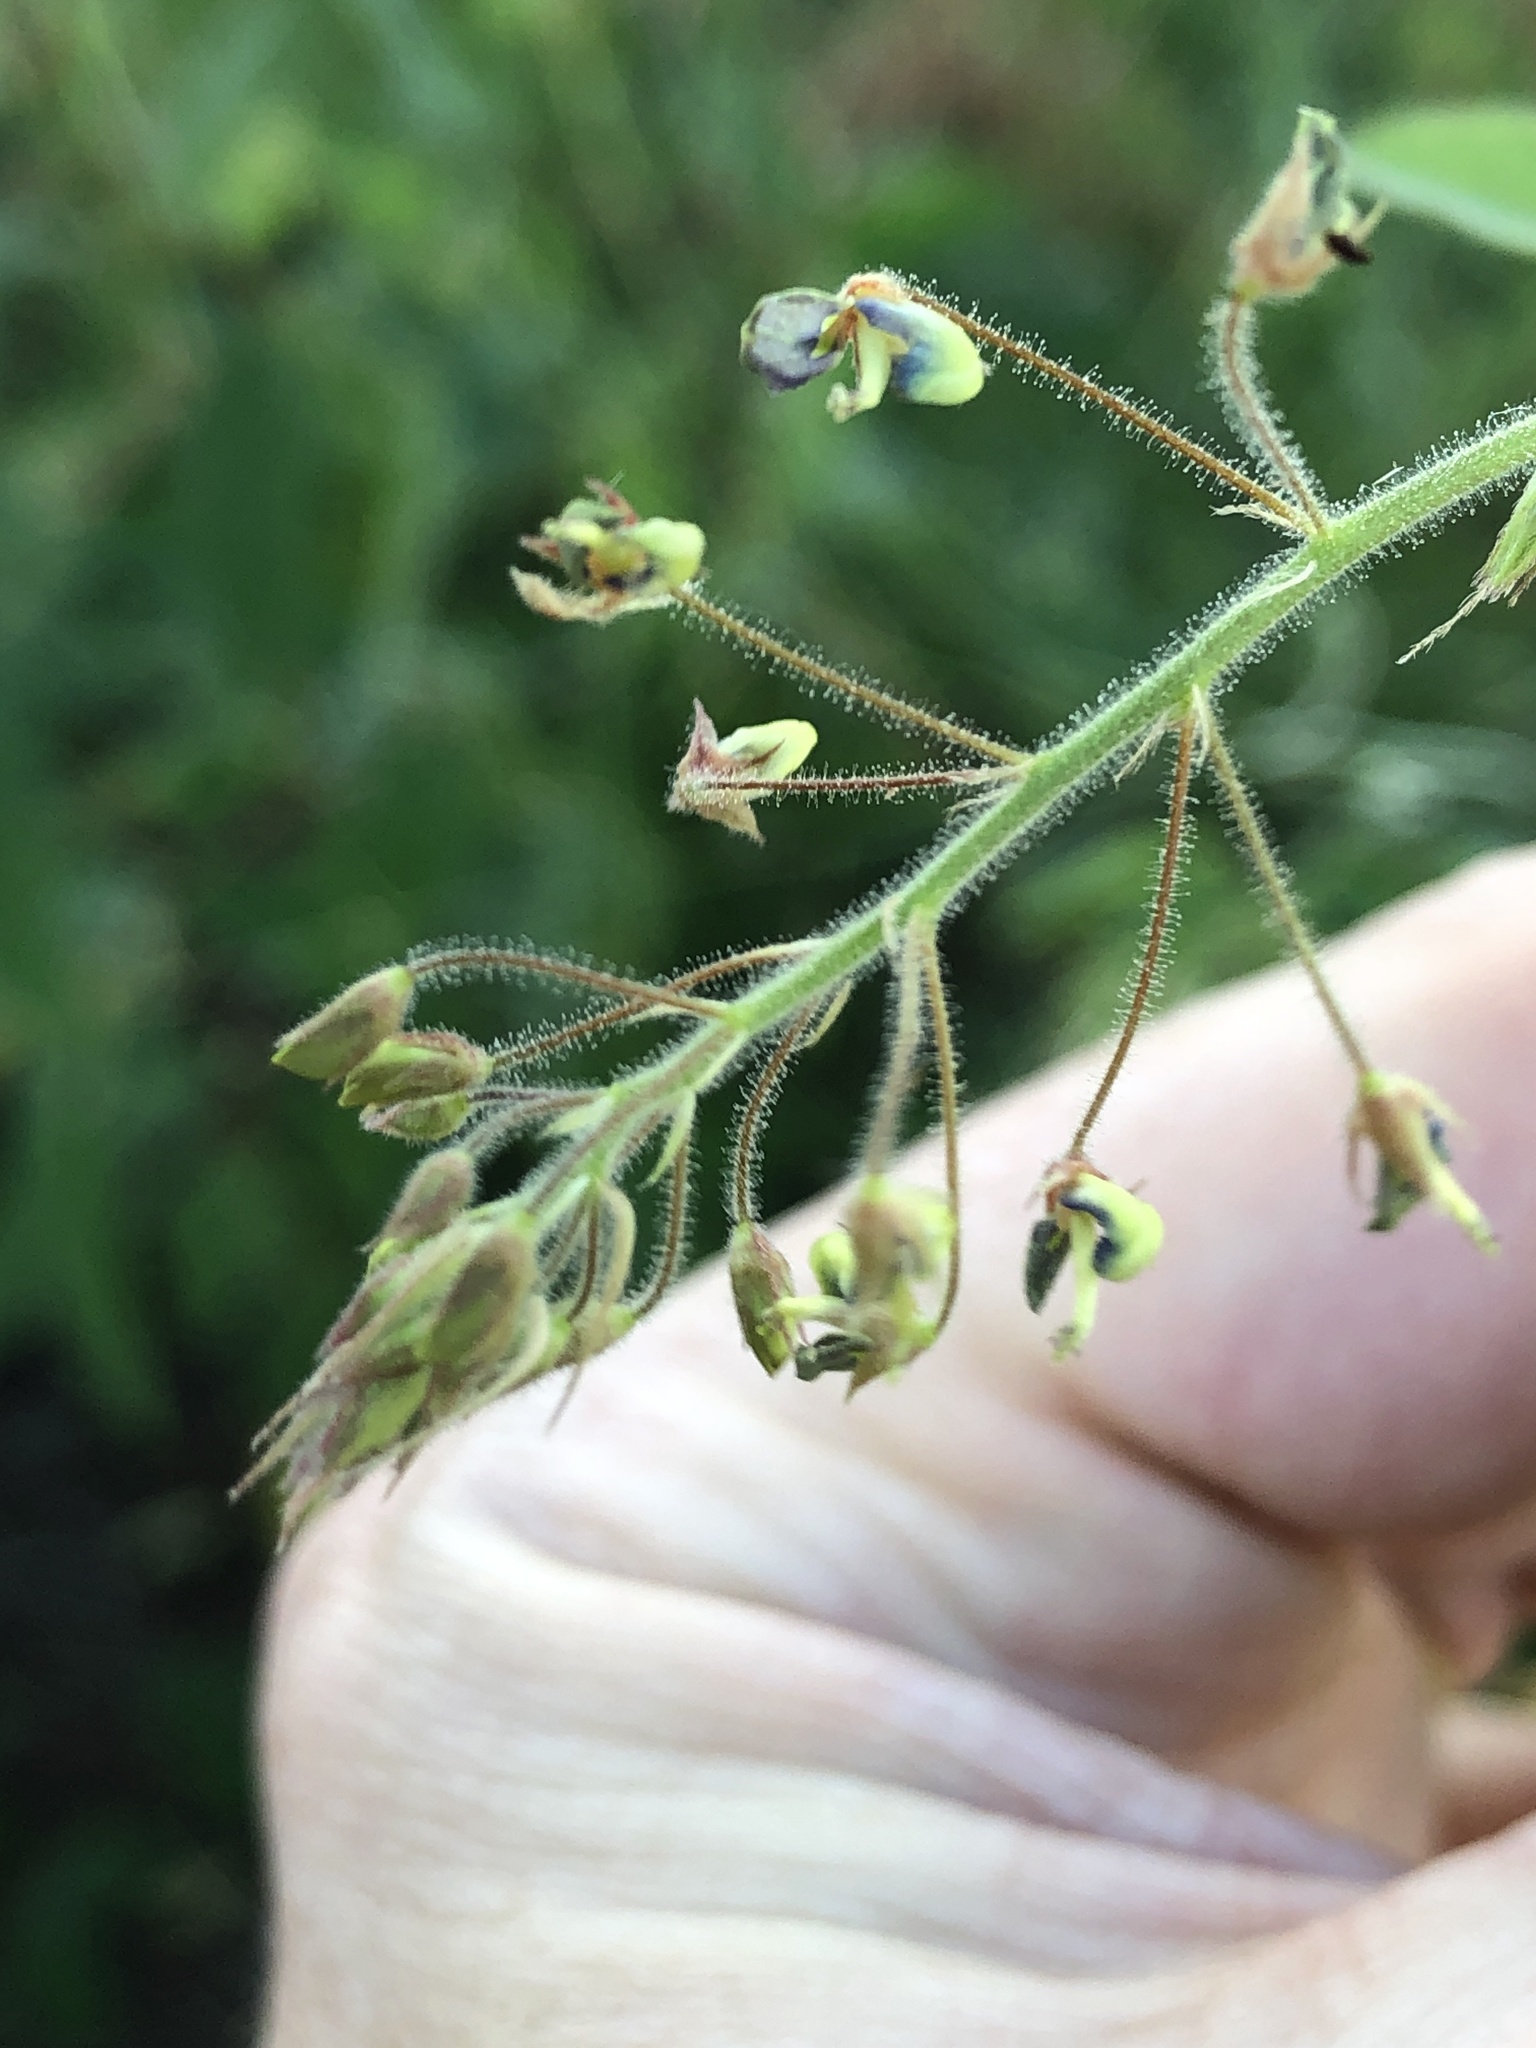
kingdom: Plantae
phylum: Tracheophyta
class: Magnoliopsida
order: Fabales
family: Fabaceae
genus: Desmodium
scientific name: Desmodium tortuosum
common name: Dixie ticktrefoil
